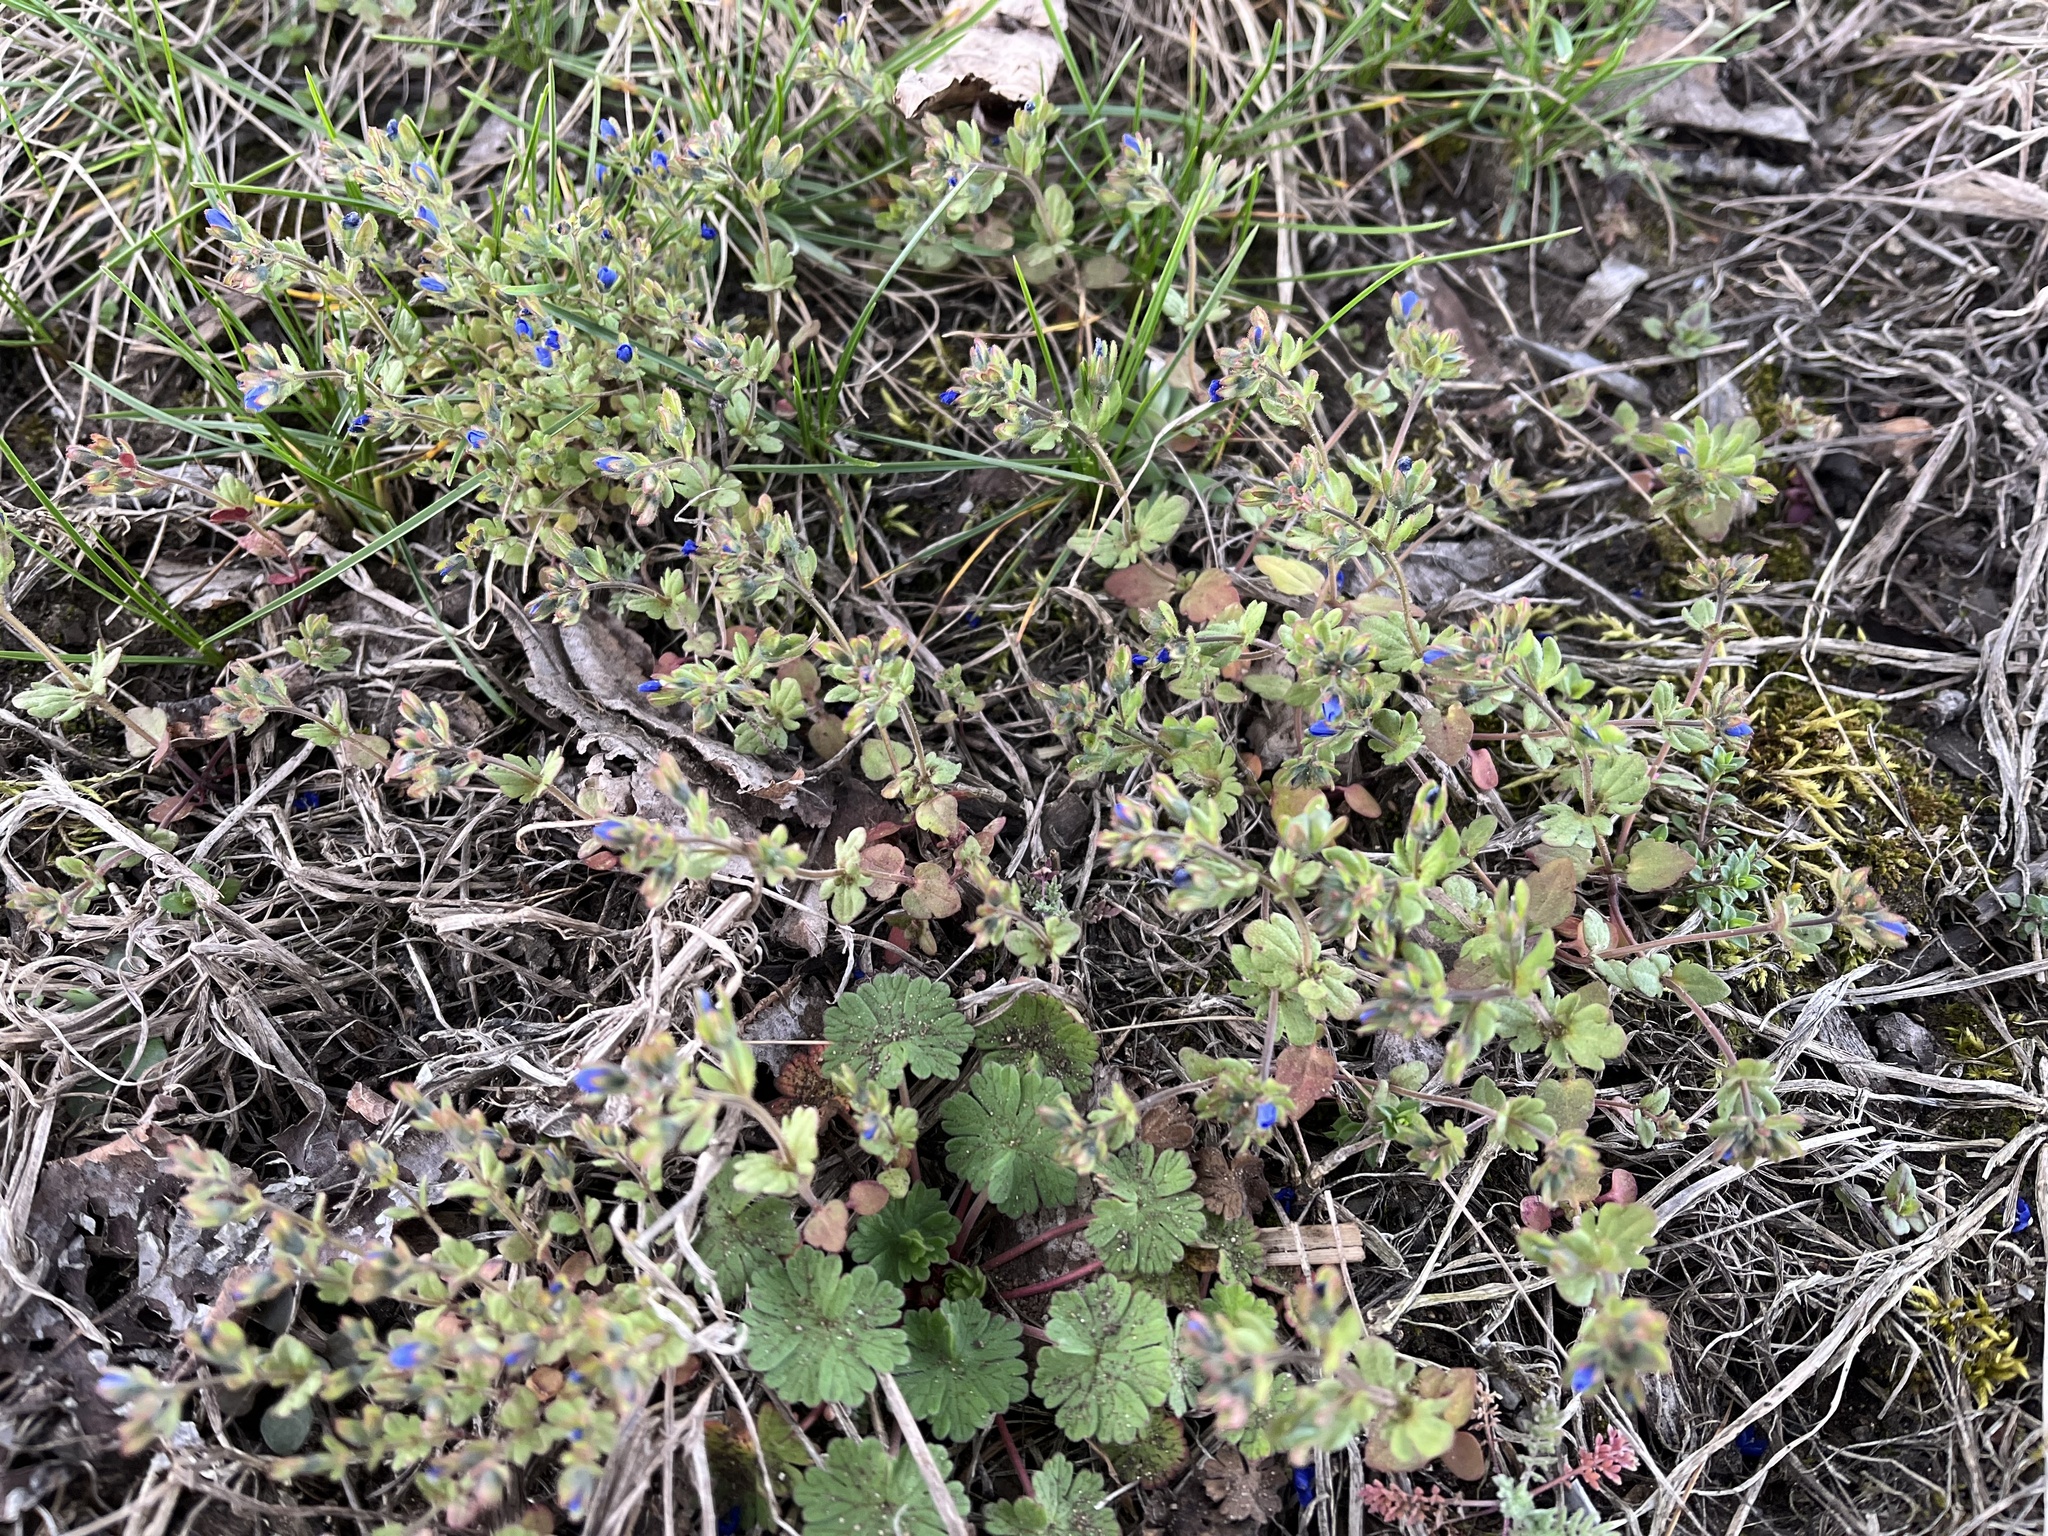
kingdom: Plantae
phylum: Tracheophyta
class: Magnoliopsida
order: Lamiales
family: Plantaginaceae
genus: Veronica
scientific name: Veronica triphyllos
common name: Fingered speedwell
